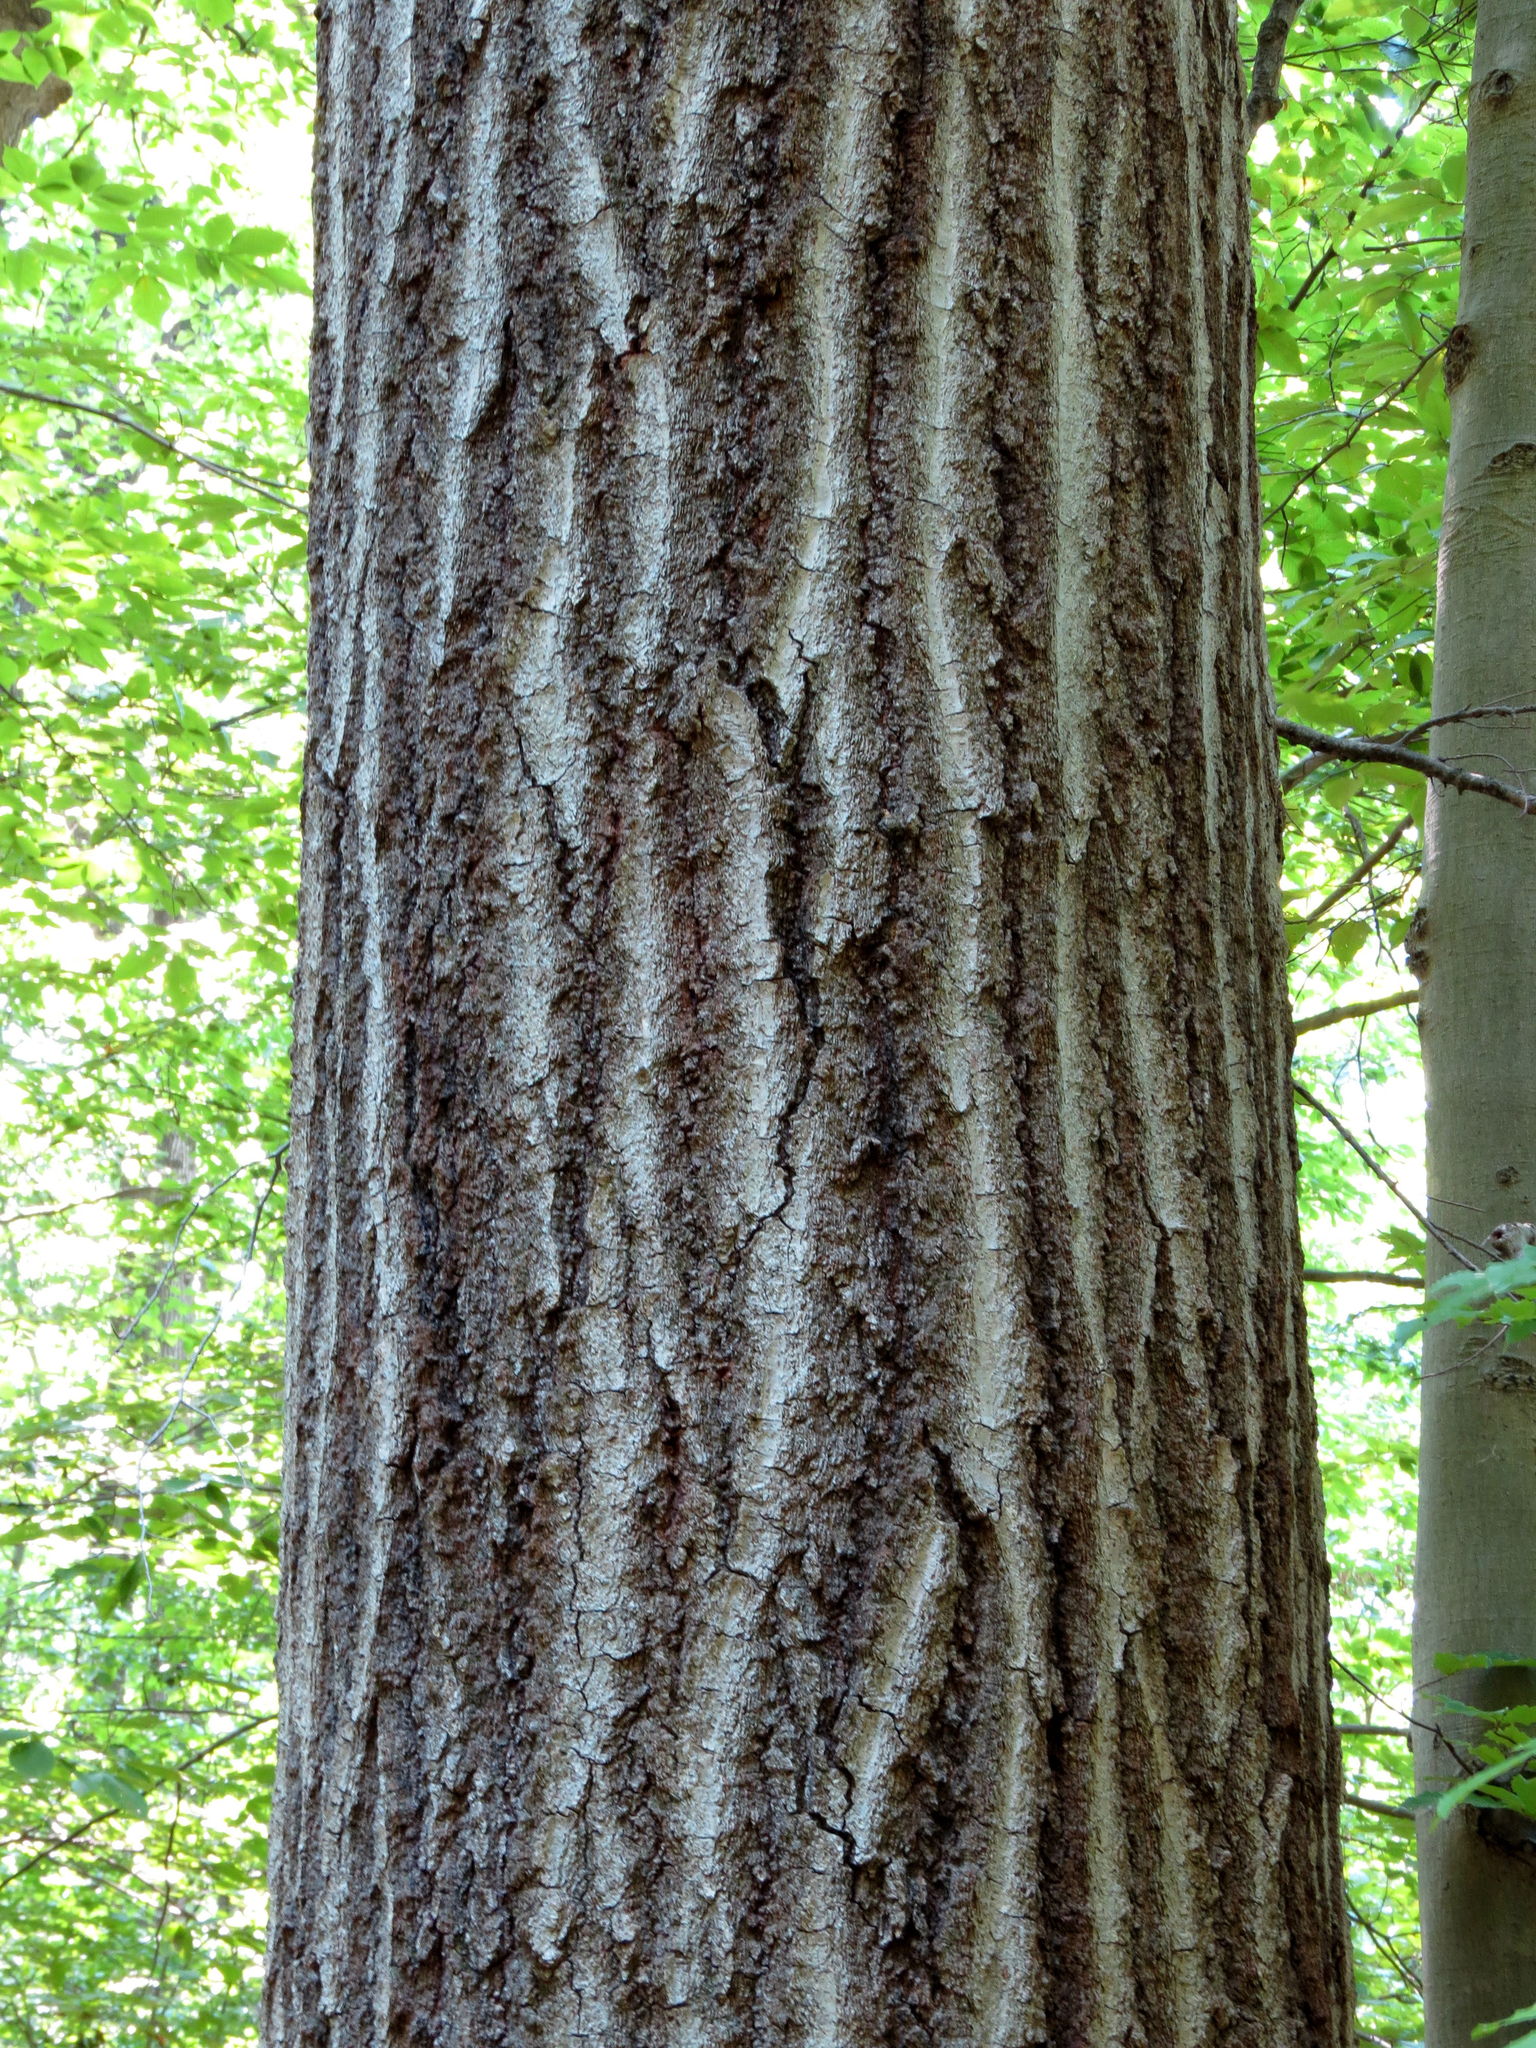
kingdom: Plantae
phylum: Tracheophyta
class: Magnoliopsida
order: Fagales
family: Fagaceae
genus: Quercus
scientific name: Quercus rubra
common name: Red oak
